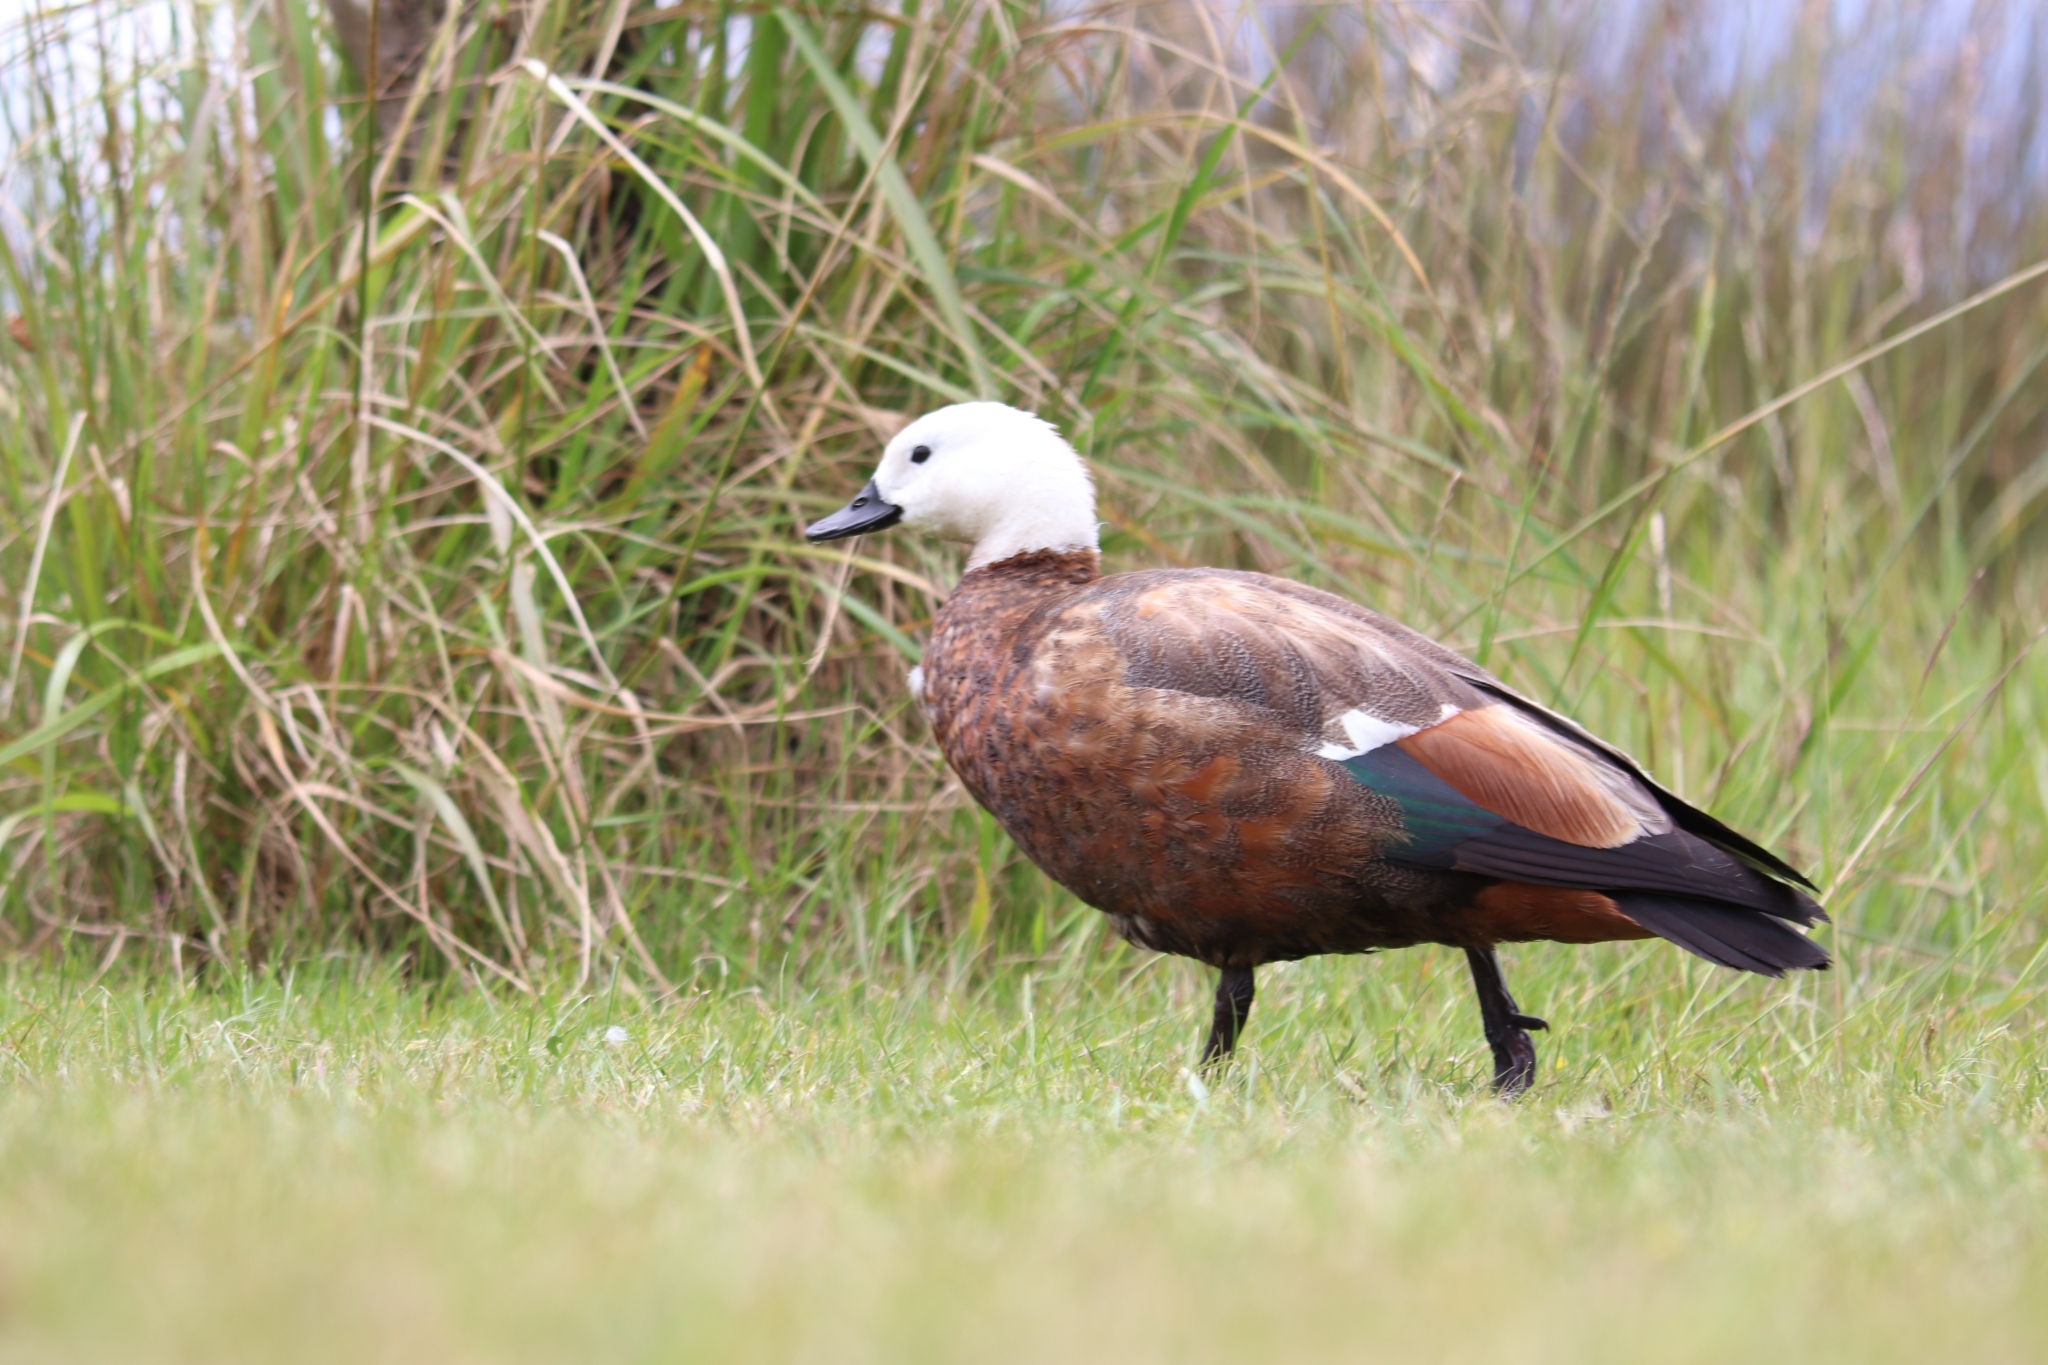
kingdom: Animalia
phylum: Chordata
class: Aves
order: Anseriformes
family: Anatidae
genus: Tadorna
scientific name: Tadorna variegata
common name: Paradise shelduck
